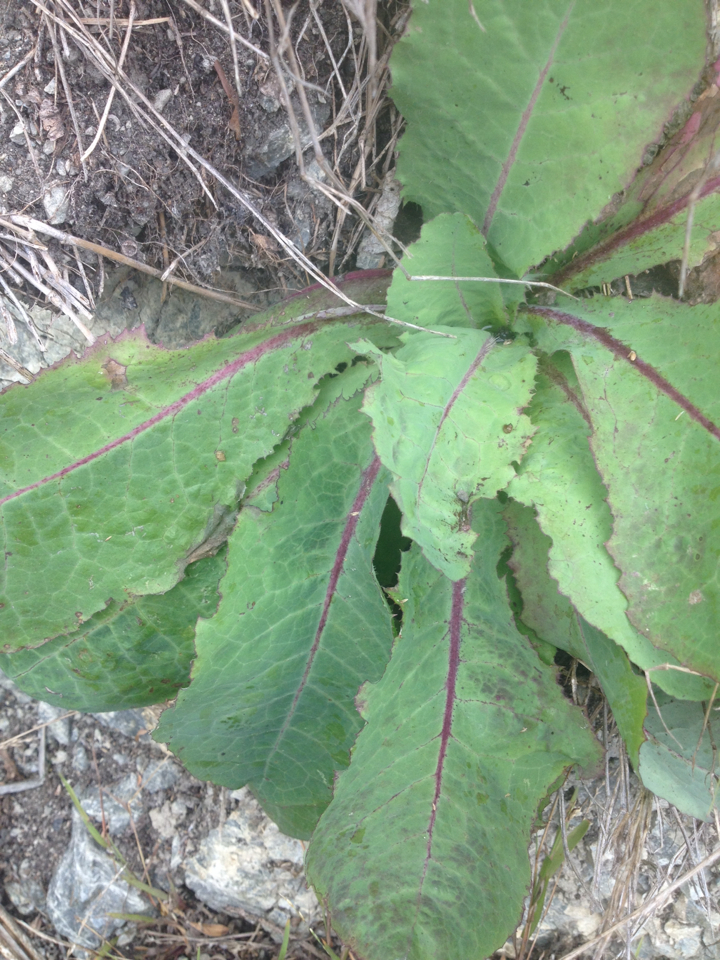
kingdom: Plantae
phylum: Tracheophyta
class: Magnoliopsida
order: Asterales
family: Asteraceae
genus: Lactuca
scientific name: Lactuca virosa
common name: Great lettuce
